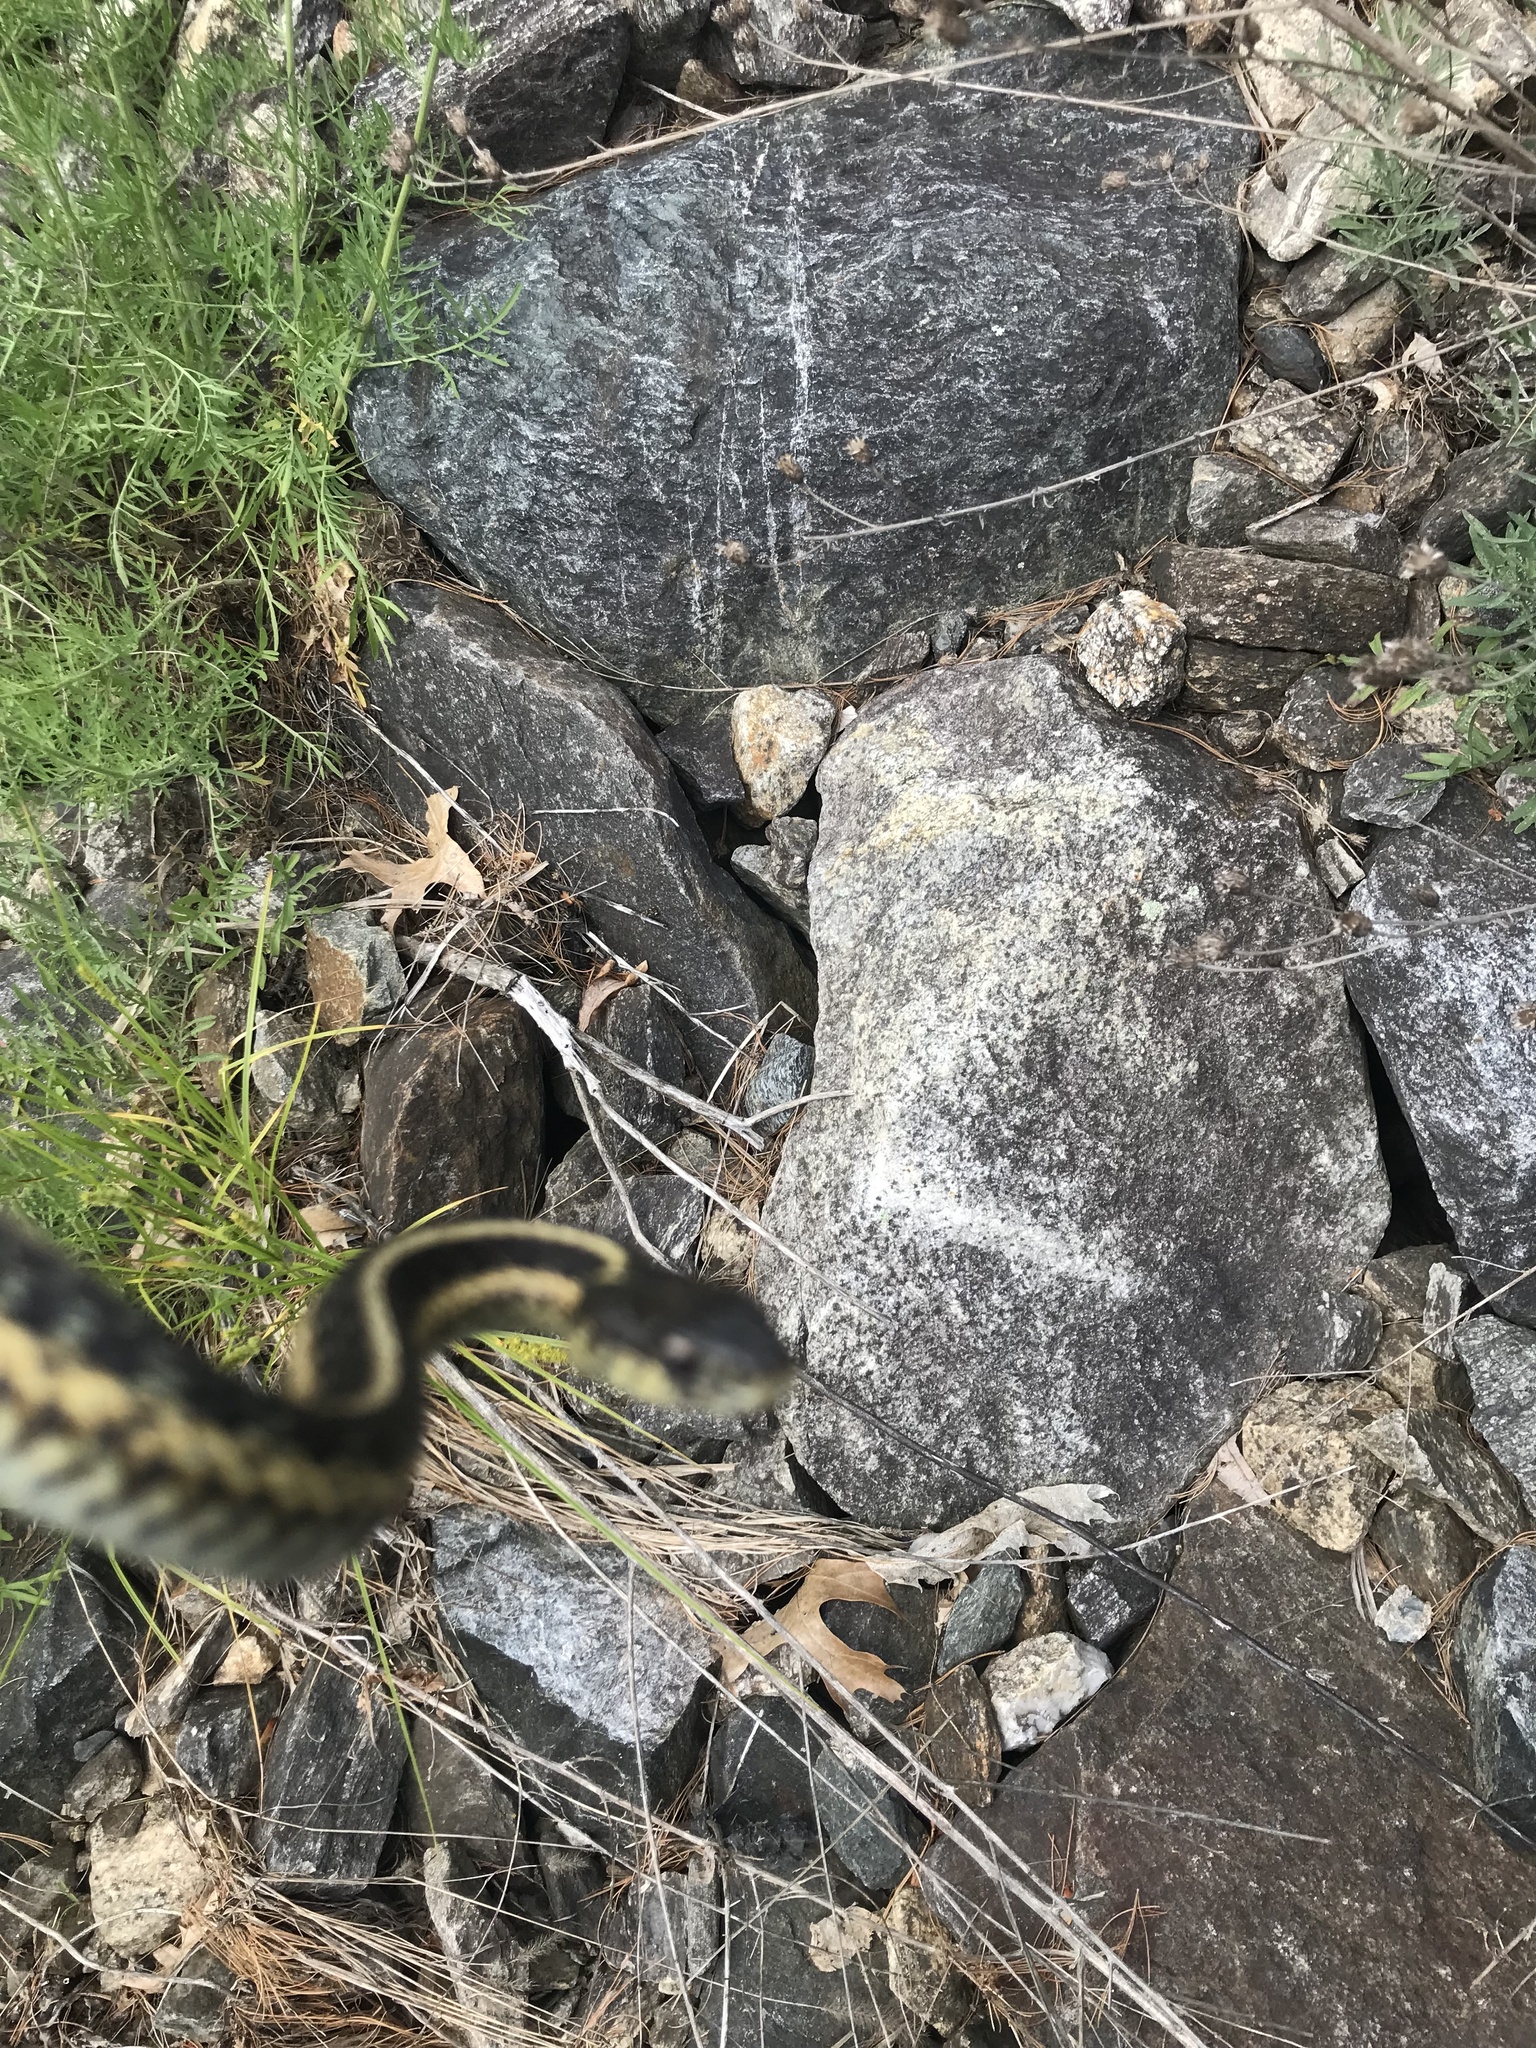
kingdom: Animalia
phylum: Chordata
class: Squamata
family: Colubridae
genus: Thamnophis
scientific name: Thamnophis sirtalis
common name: Common garter snake
